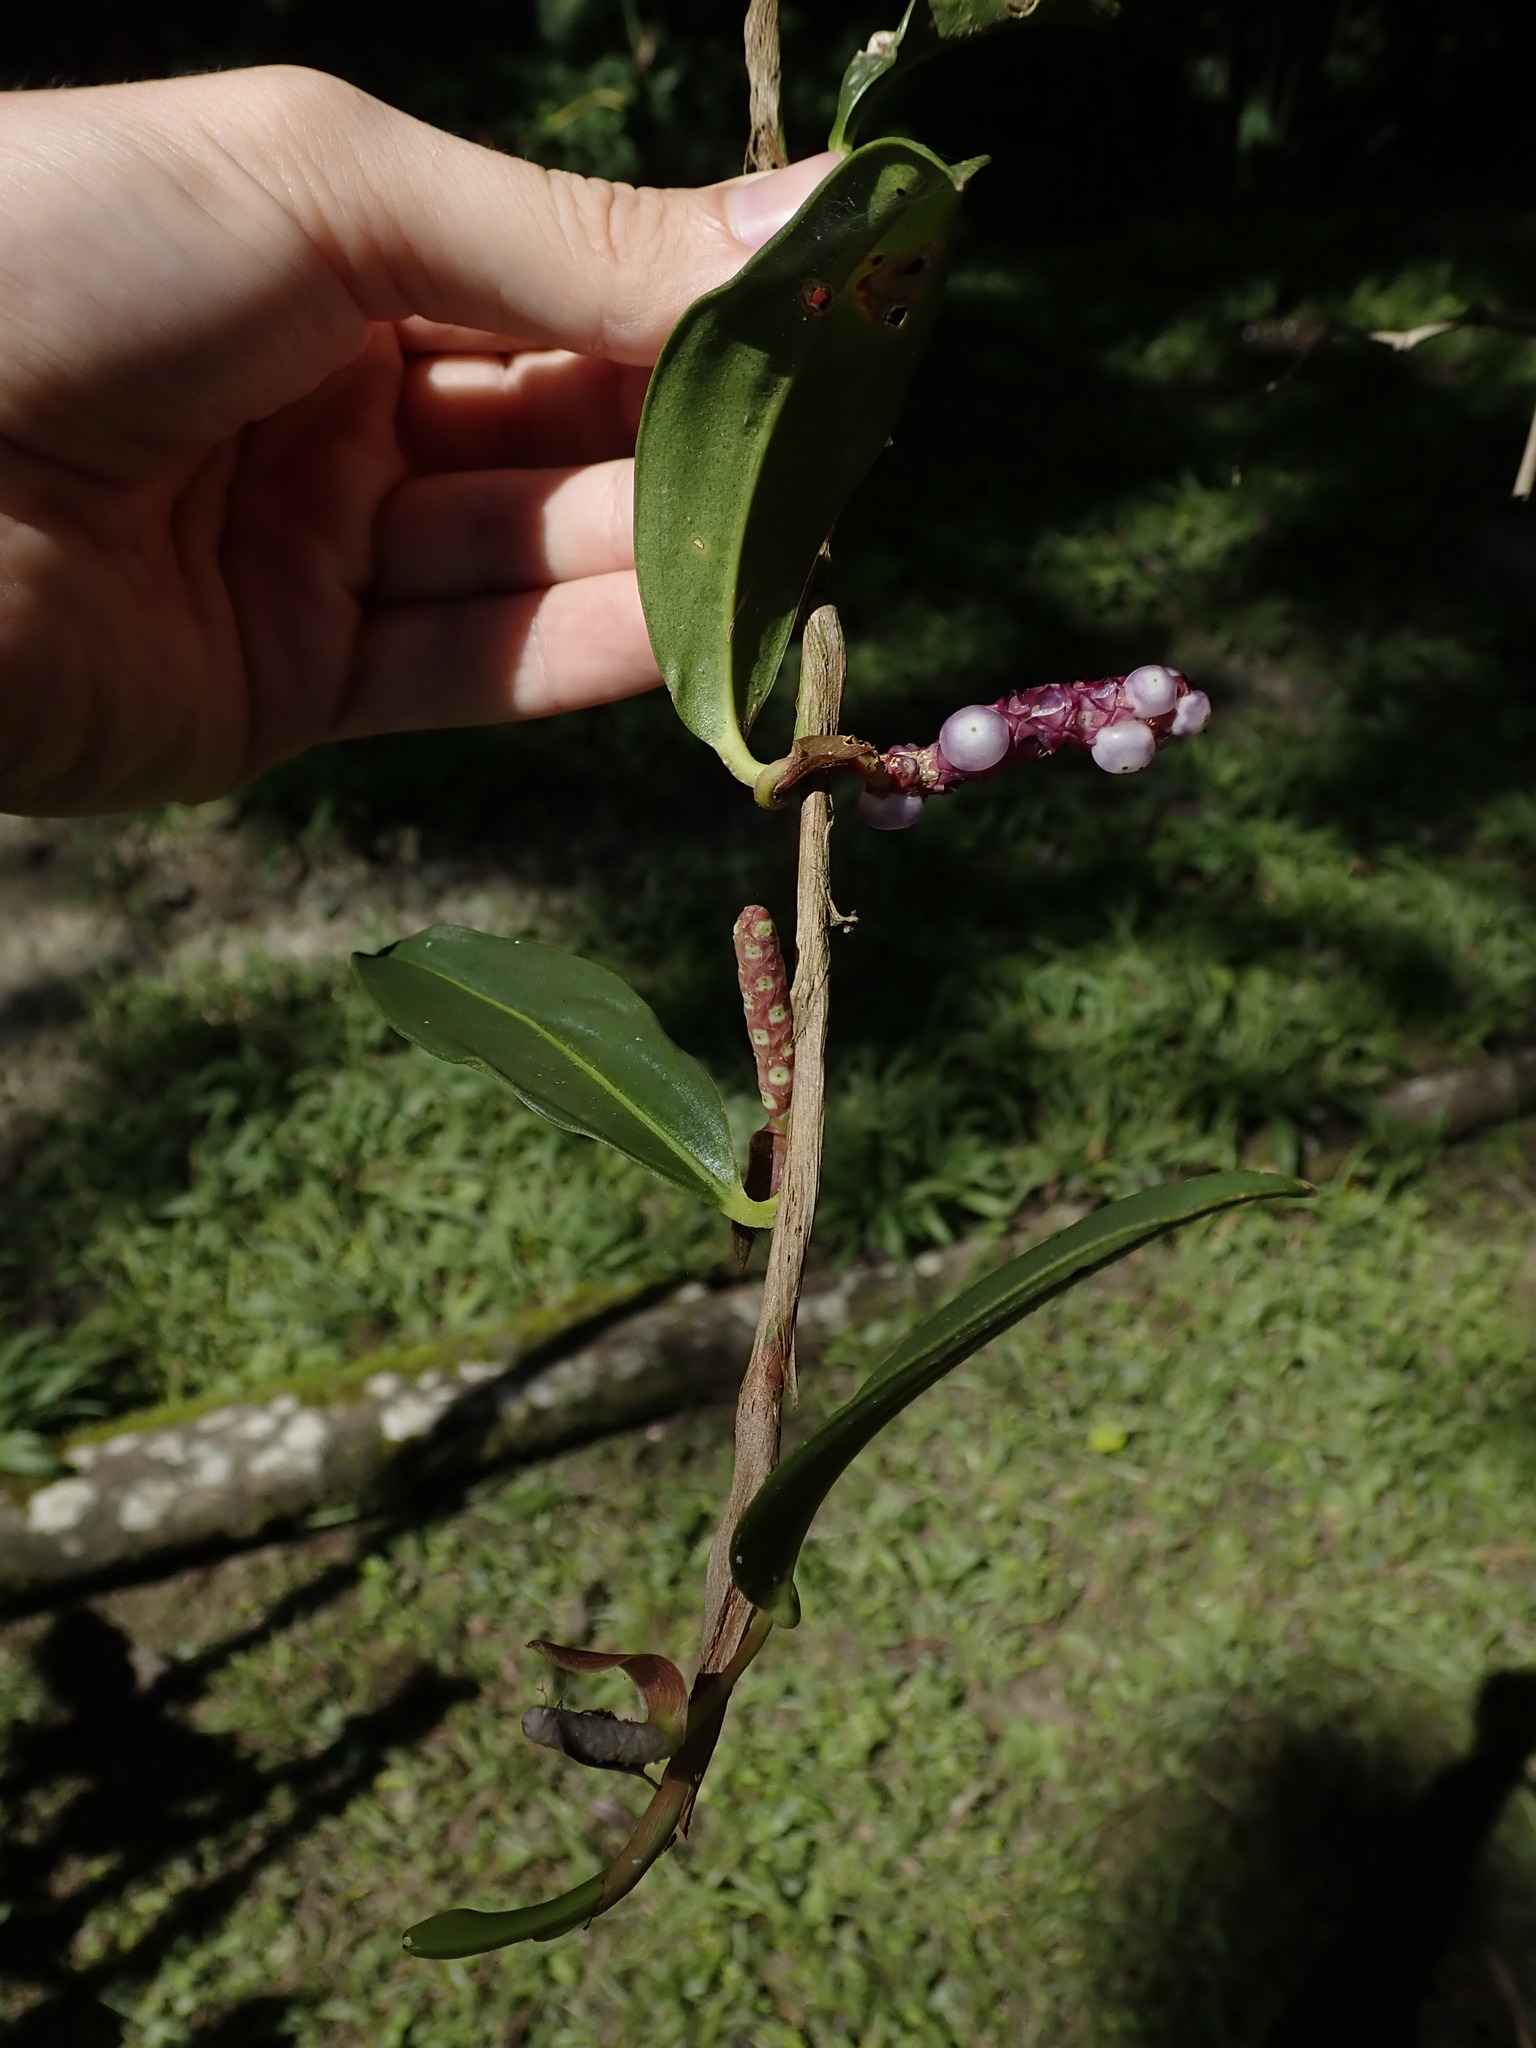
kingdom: Plantae
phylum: Tracheophyta
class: Liliopsida
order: Alismatales
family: Araceae
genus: Anthurium
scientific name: Anthurium scandens
